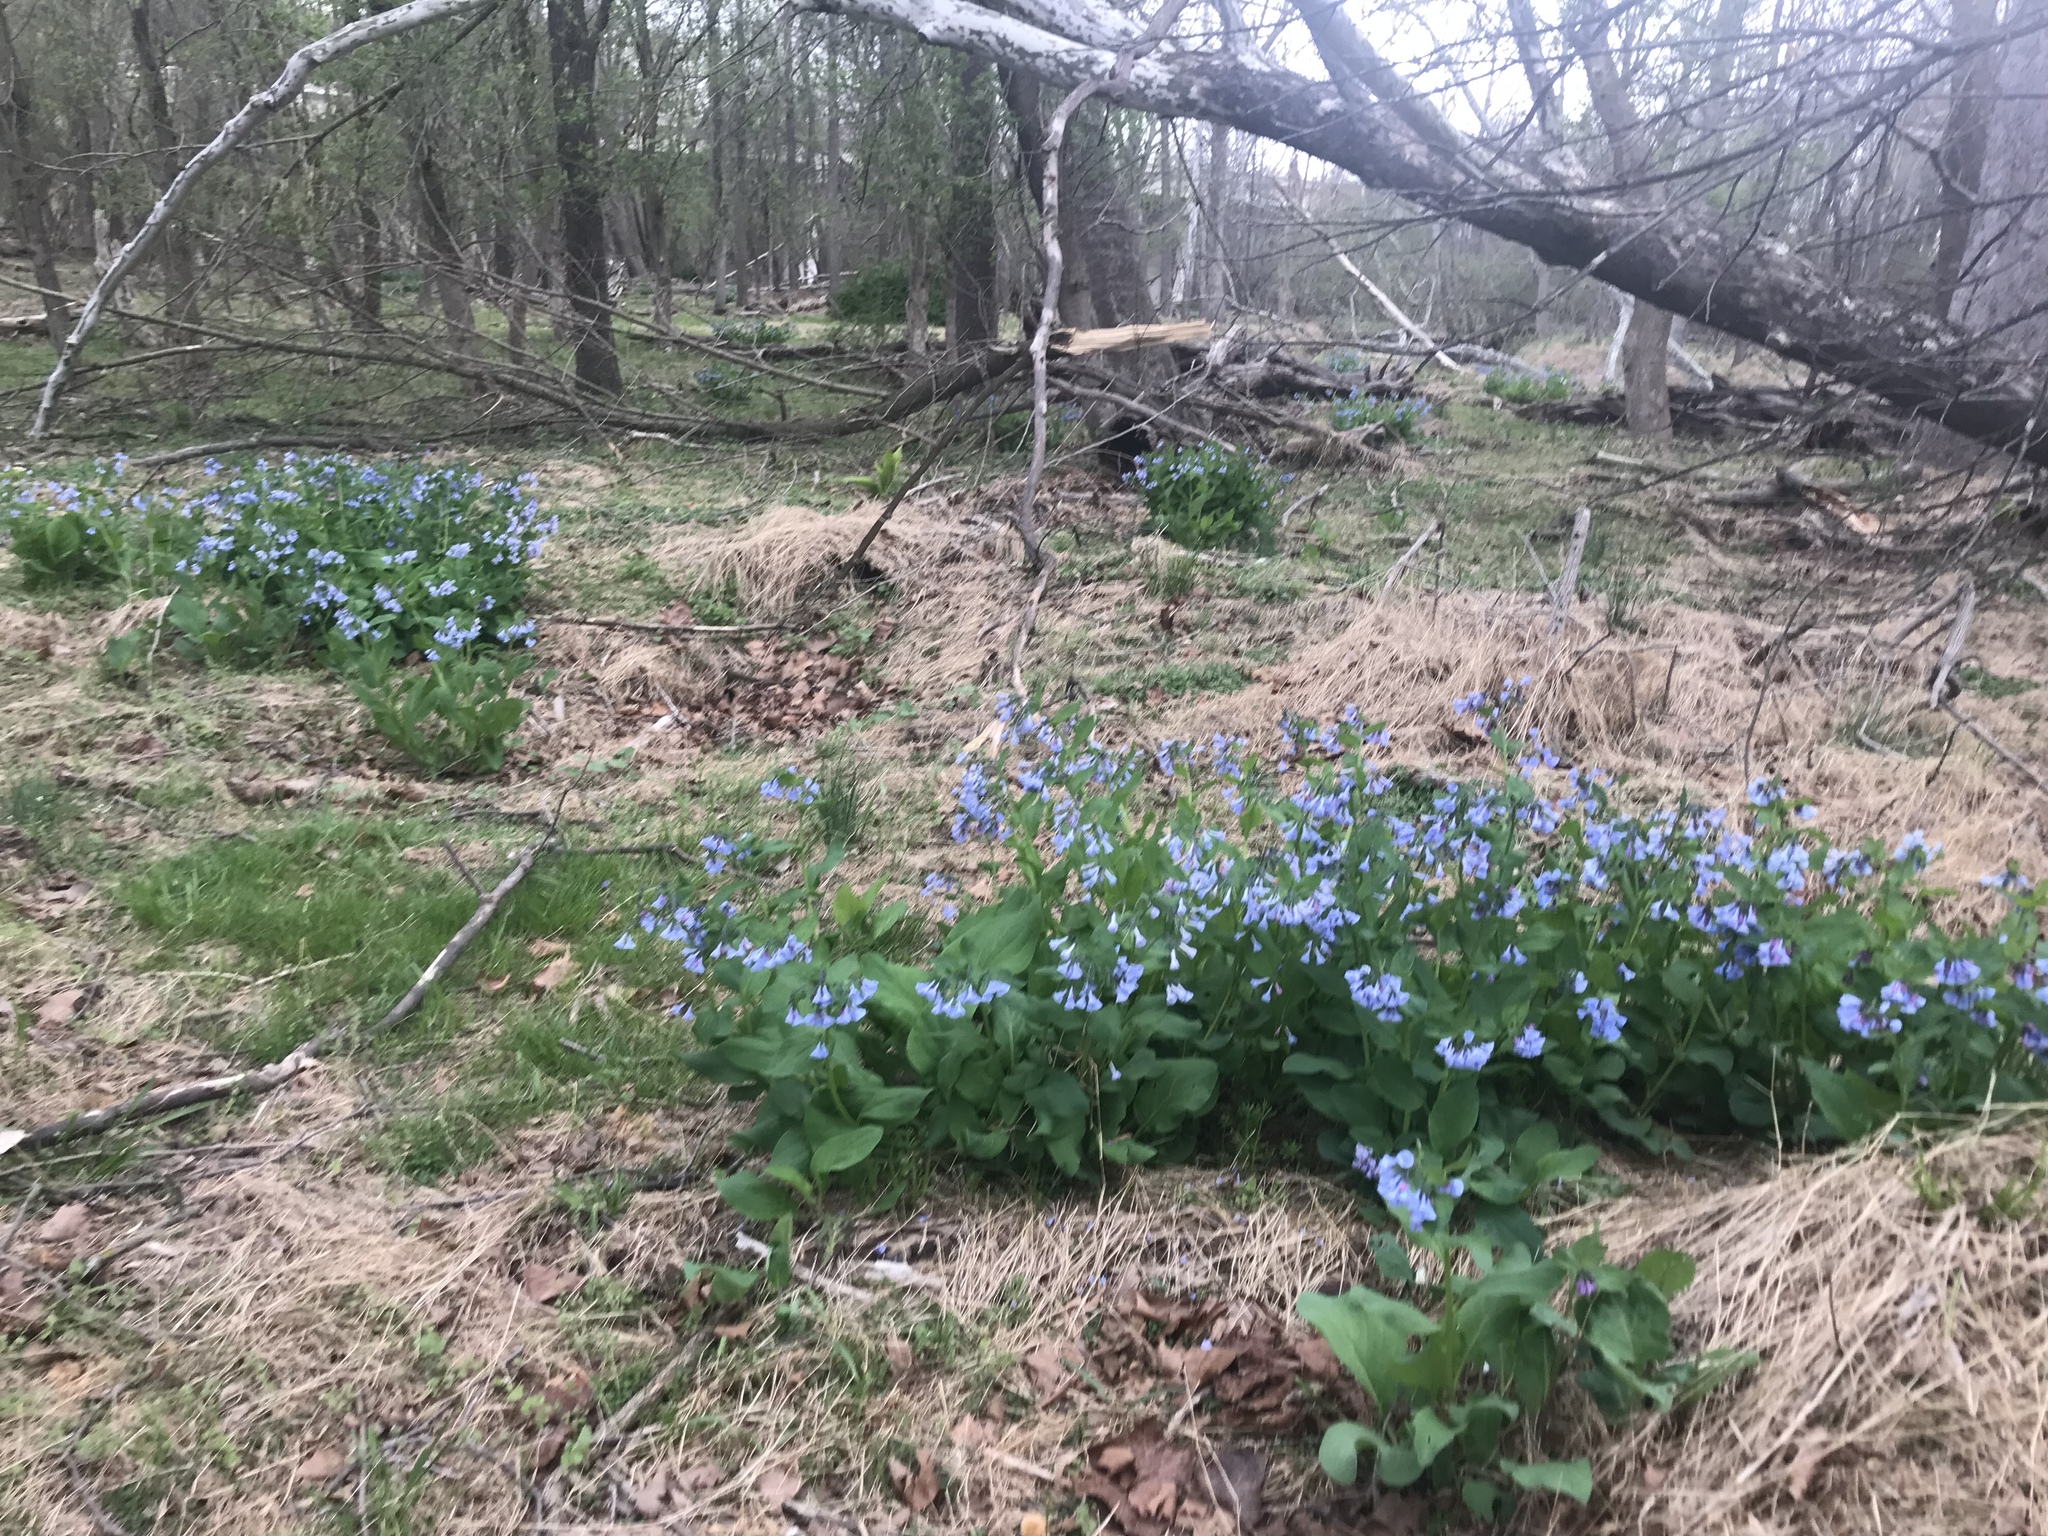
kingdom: Plantae
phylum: Tracheophyta
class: Magnoliopsida
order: Boraginales
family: Boraginaceae
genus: Mertensia
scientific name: Mertensia virginica
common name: Virginia bluebells
